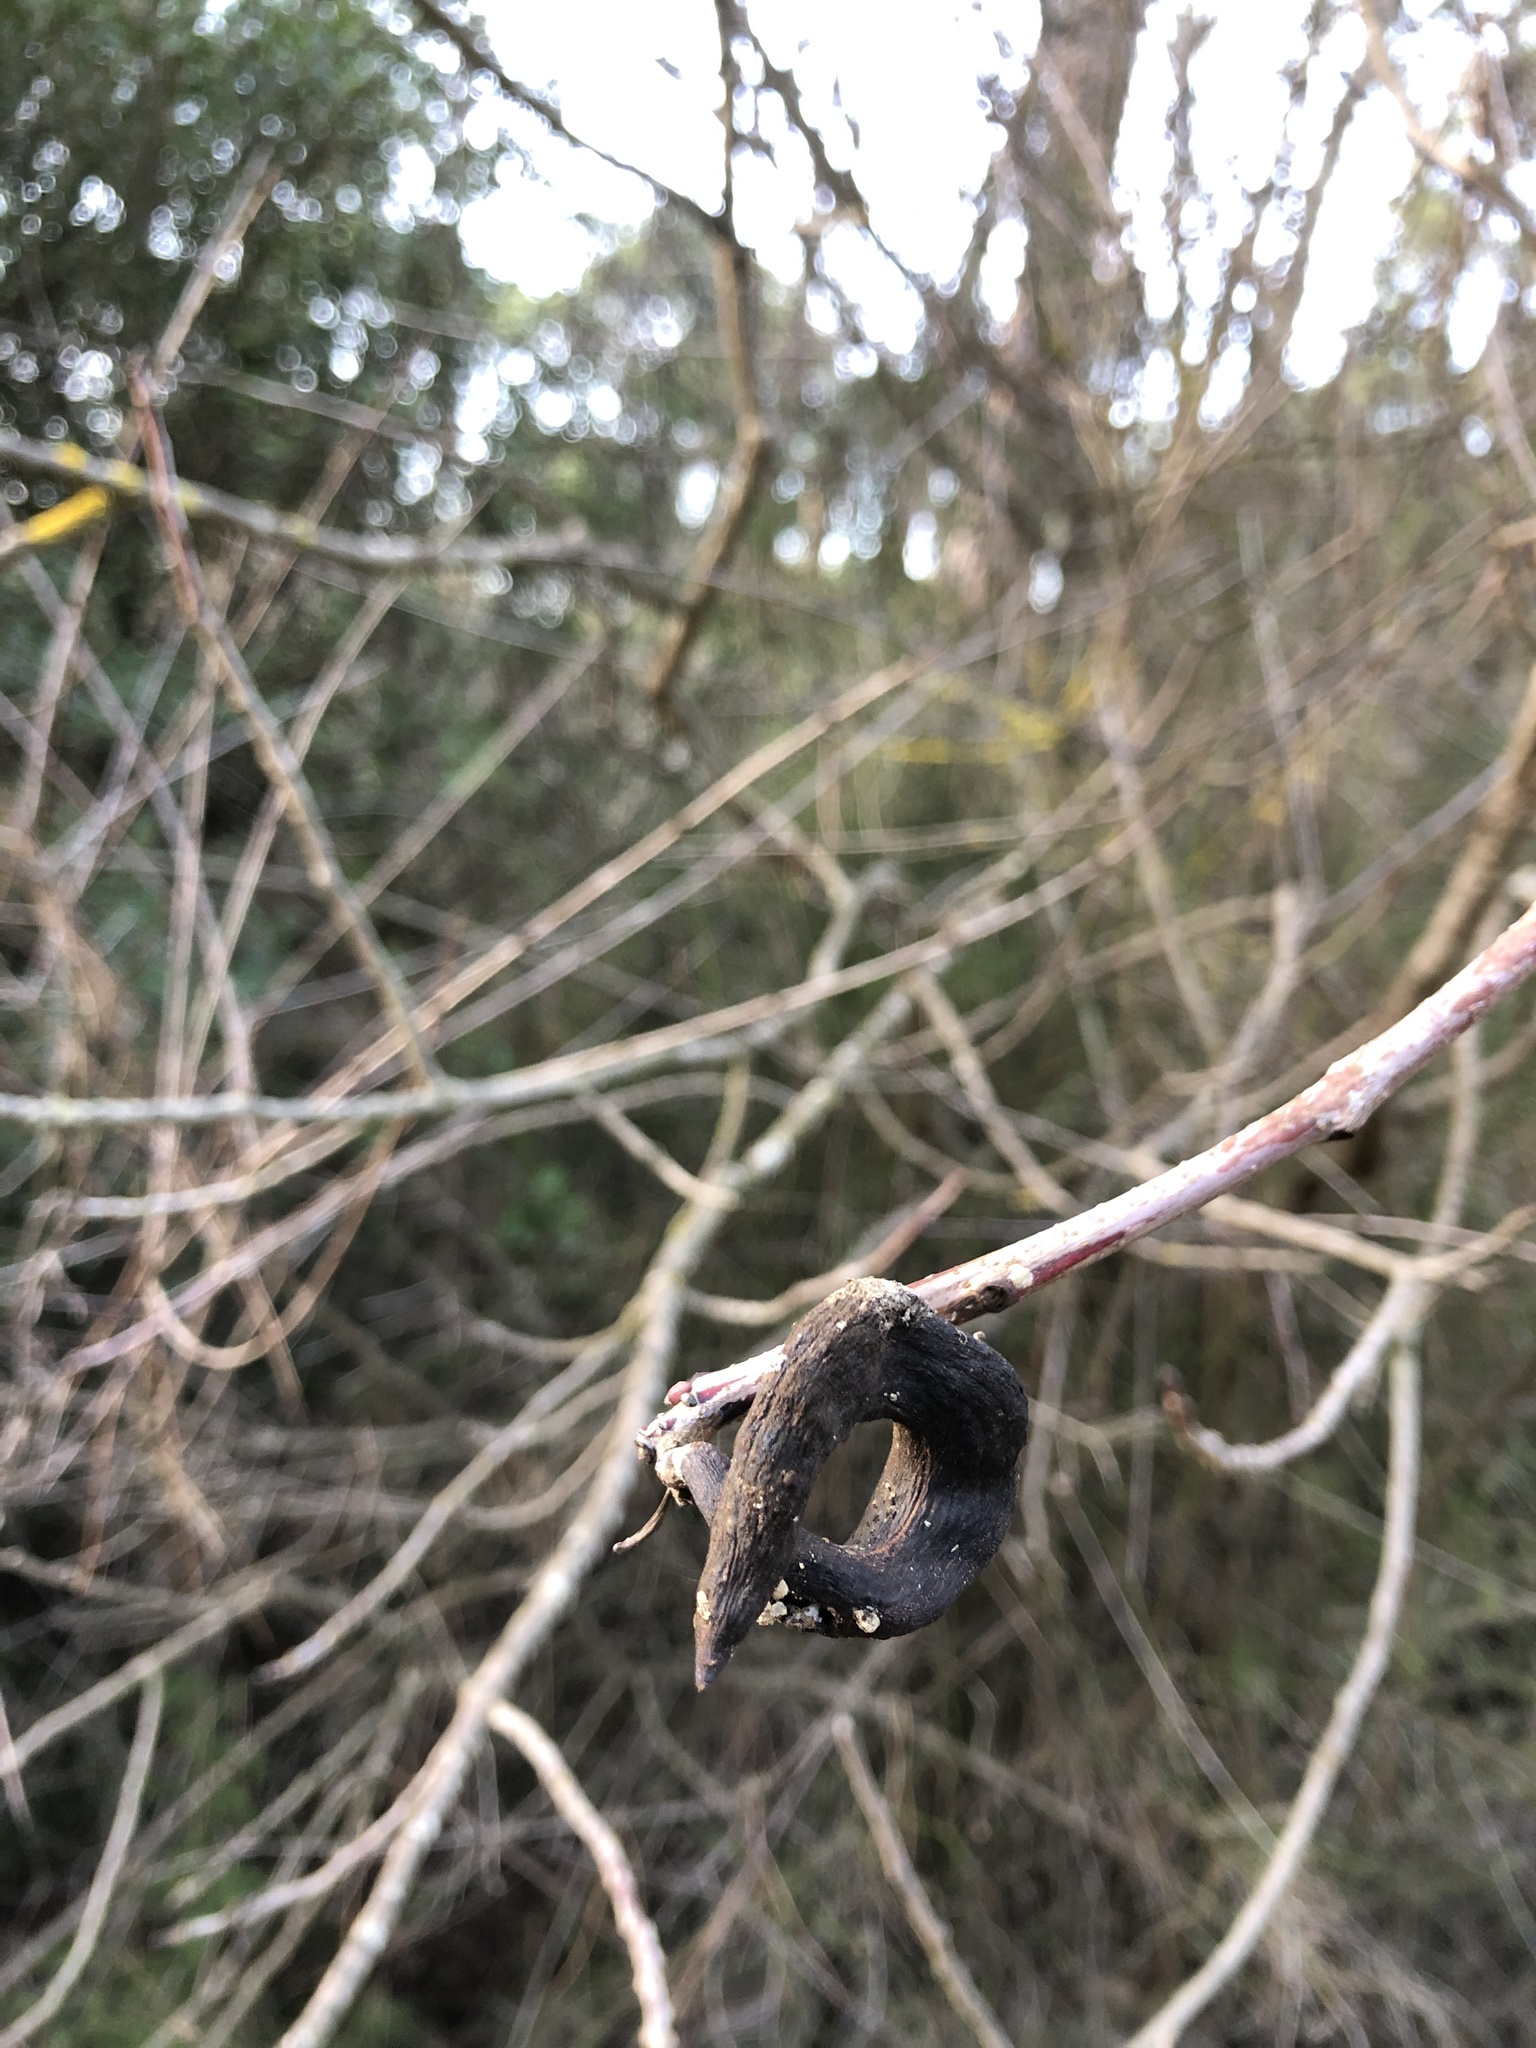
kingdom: Plantae
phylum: Tracheophyta
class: Magnoliopsida
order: Sapindales
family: Anacardiaceae
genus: Pistacia
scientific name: Pistacia terebinthus
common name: Terebinth
